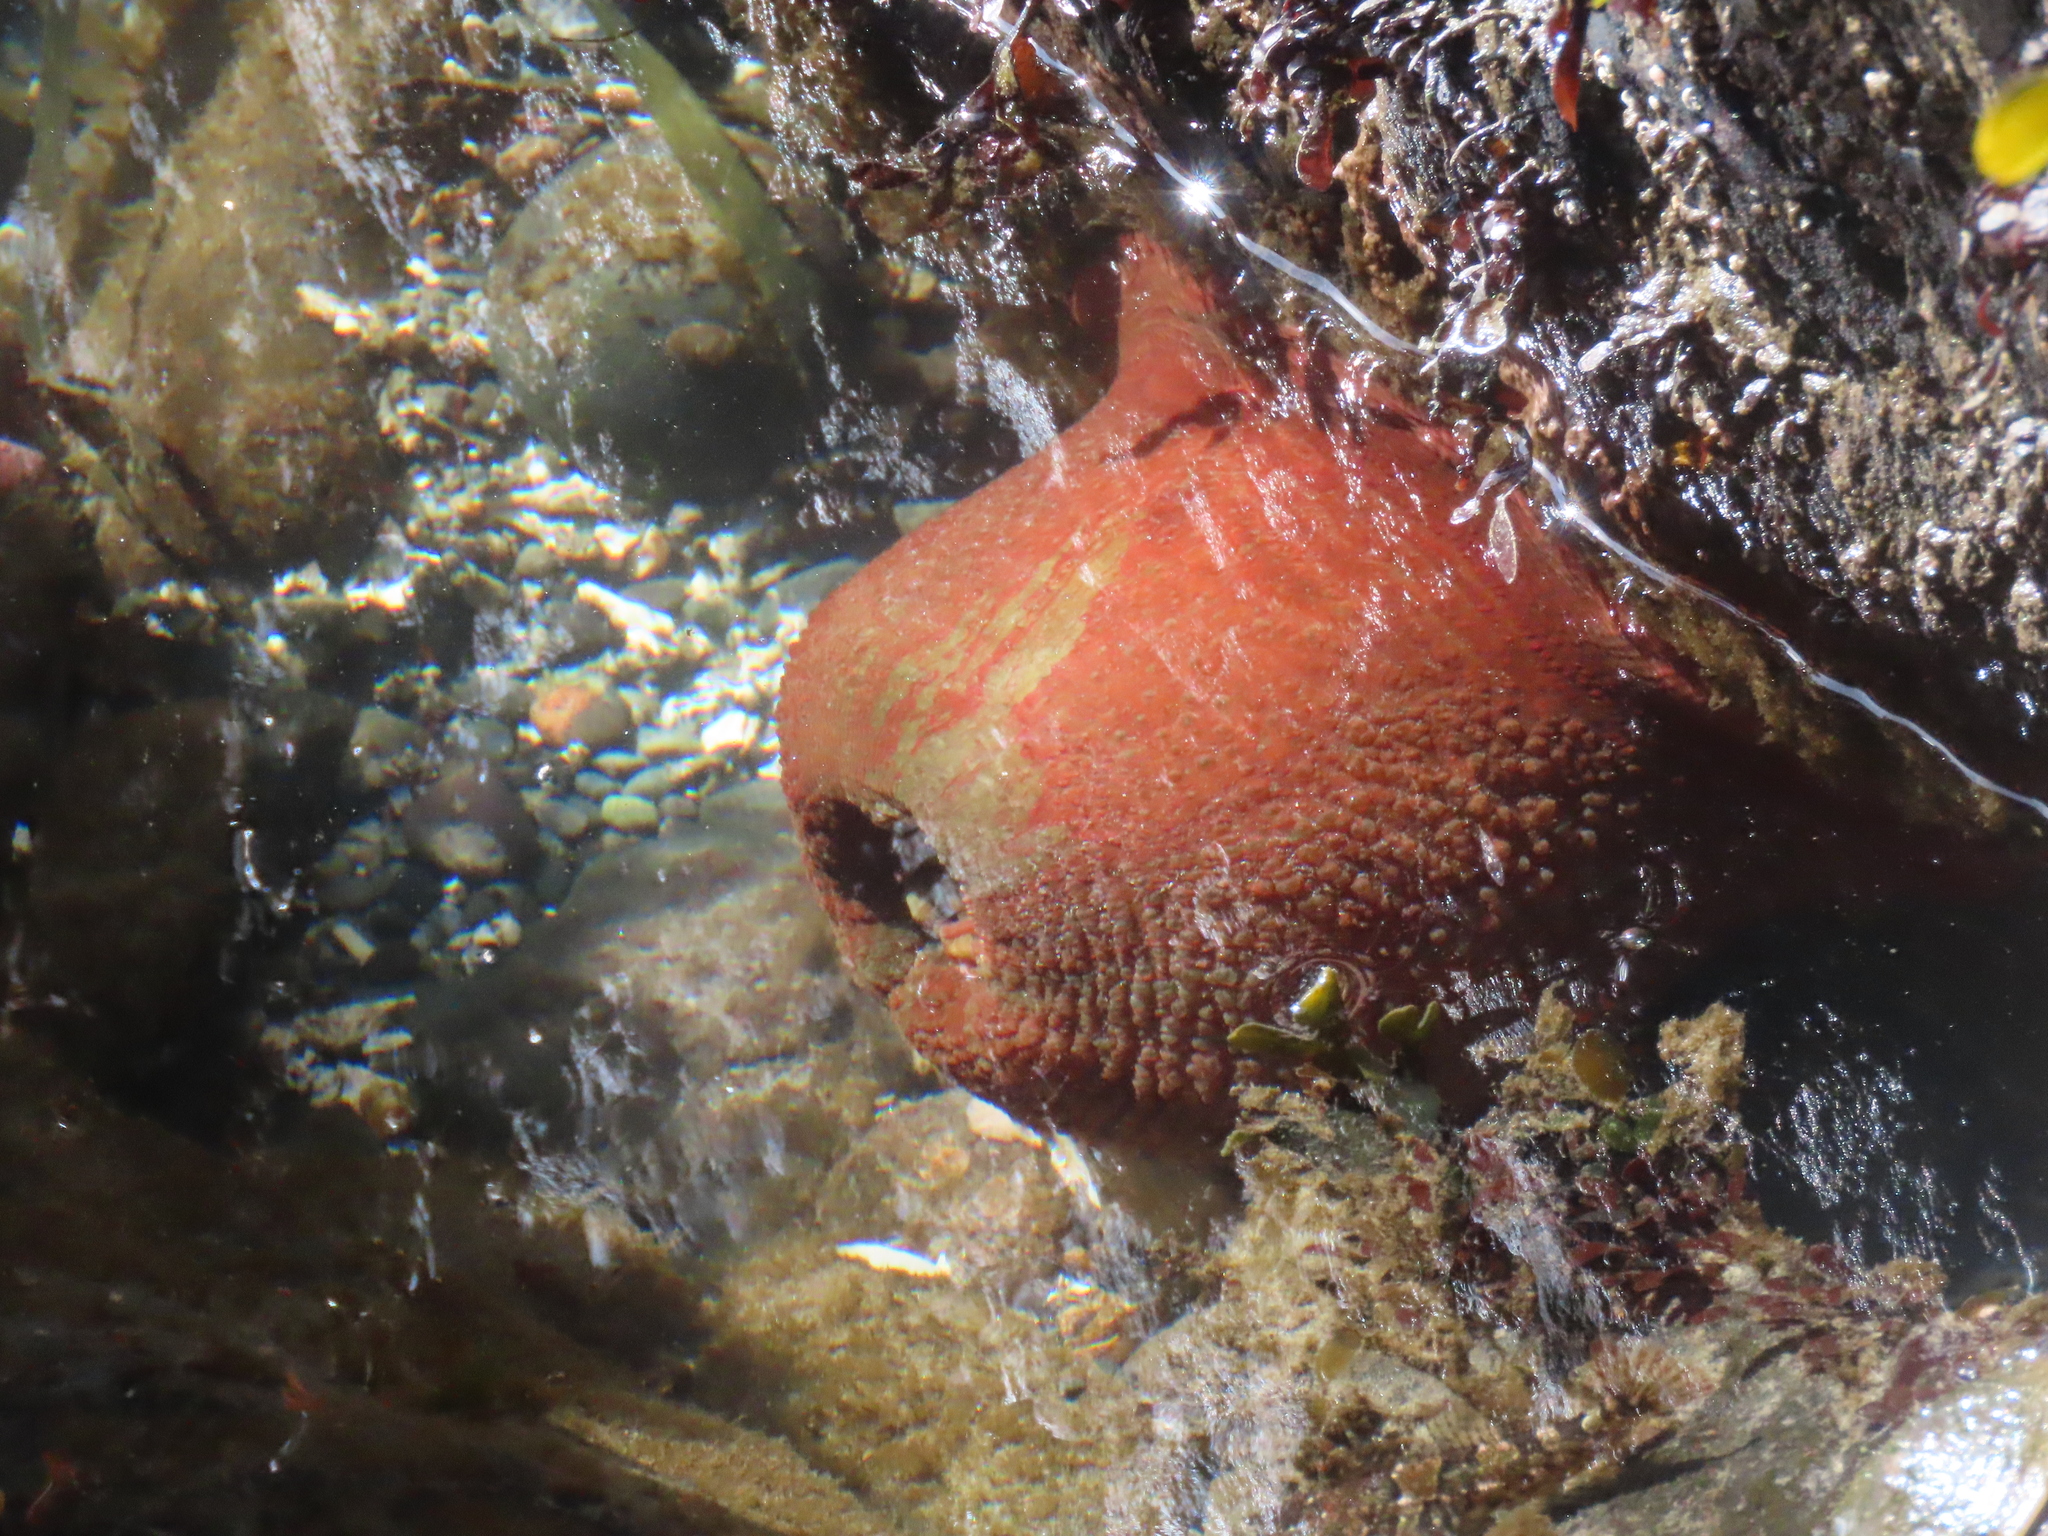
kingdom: Animalia
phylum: Cnidaria
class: Anthozoa
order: Actiniaria
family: Actiniidae
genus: Urticina
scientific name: Urticina grebelnyi
